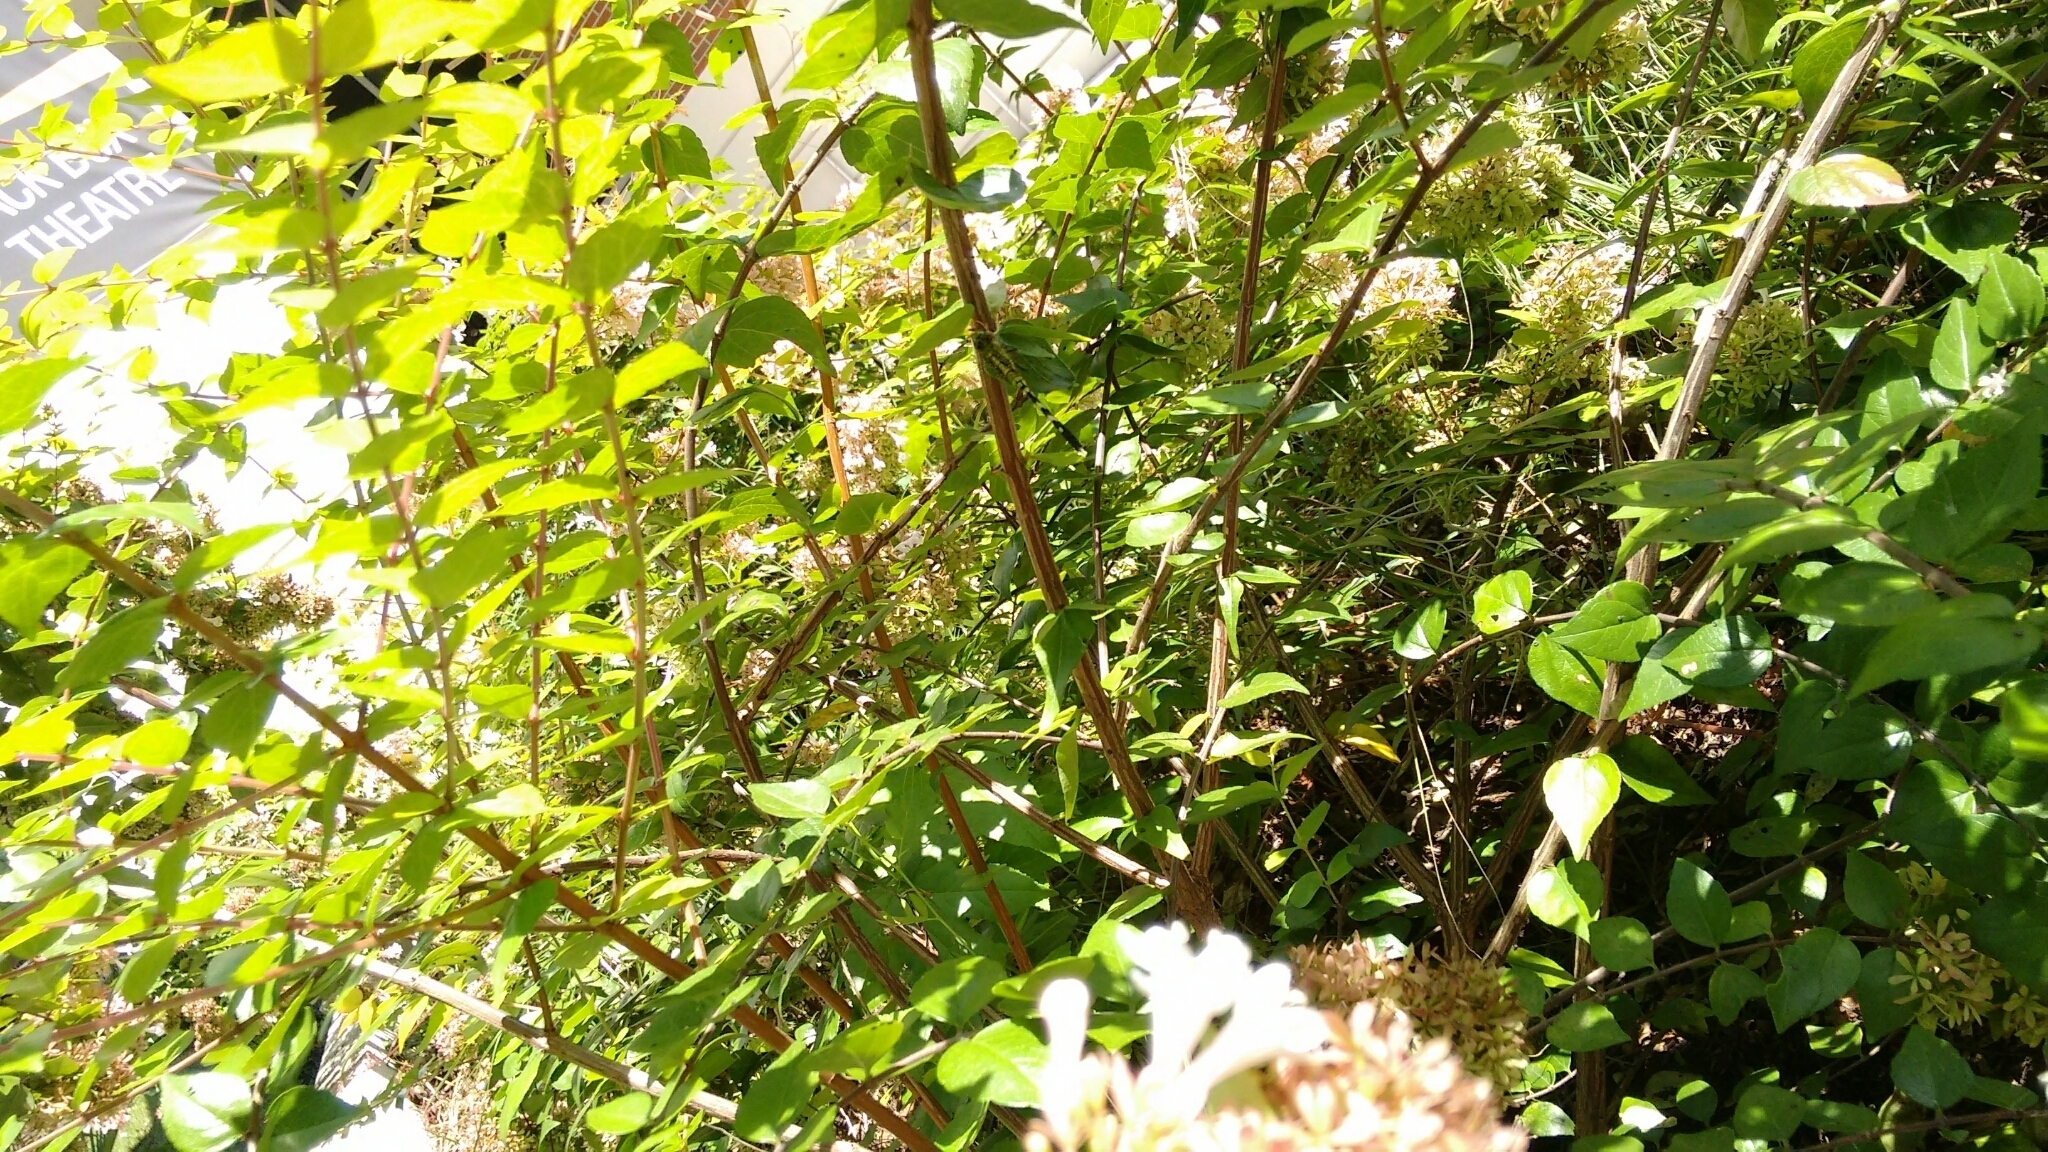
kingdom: Animalia
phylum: Arthropoda
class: Insecta
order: Odonata
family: Libellulidae
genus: Erythemis
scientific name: Erythemis simplicicollis
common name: Eastern pondhawk
